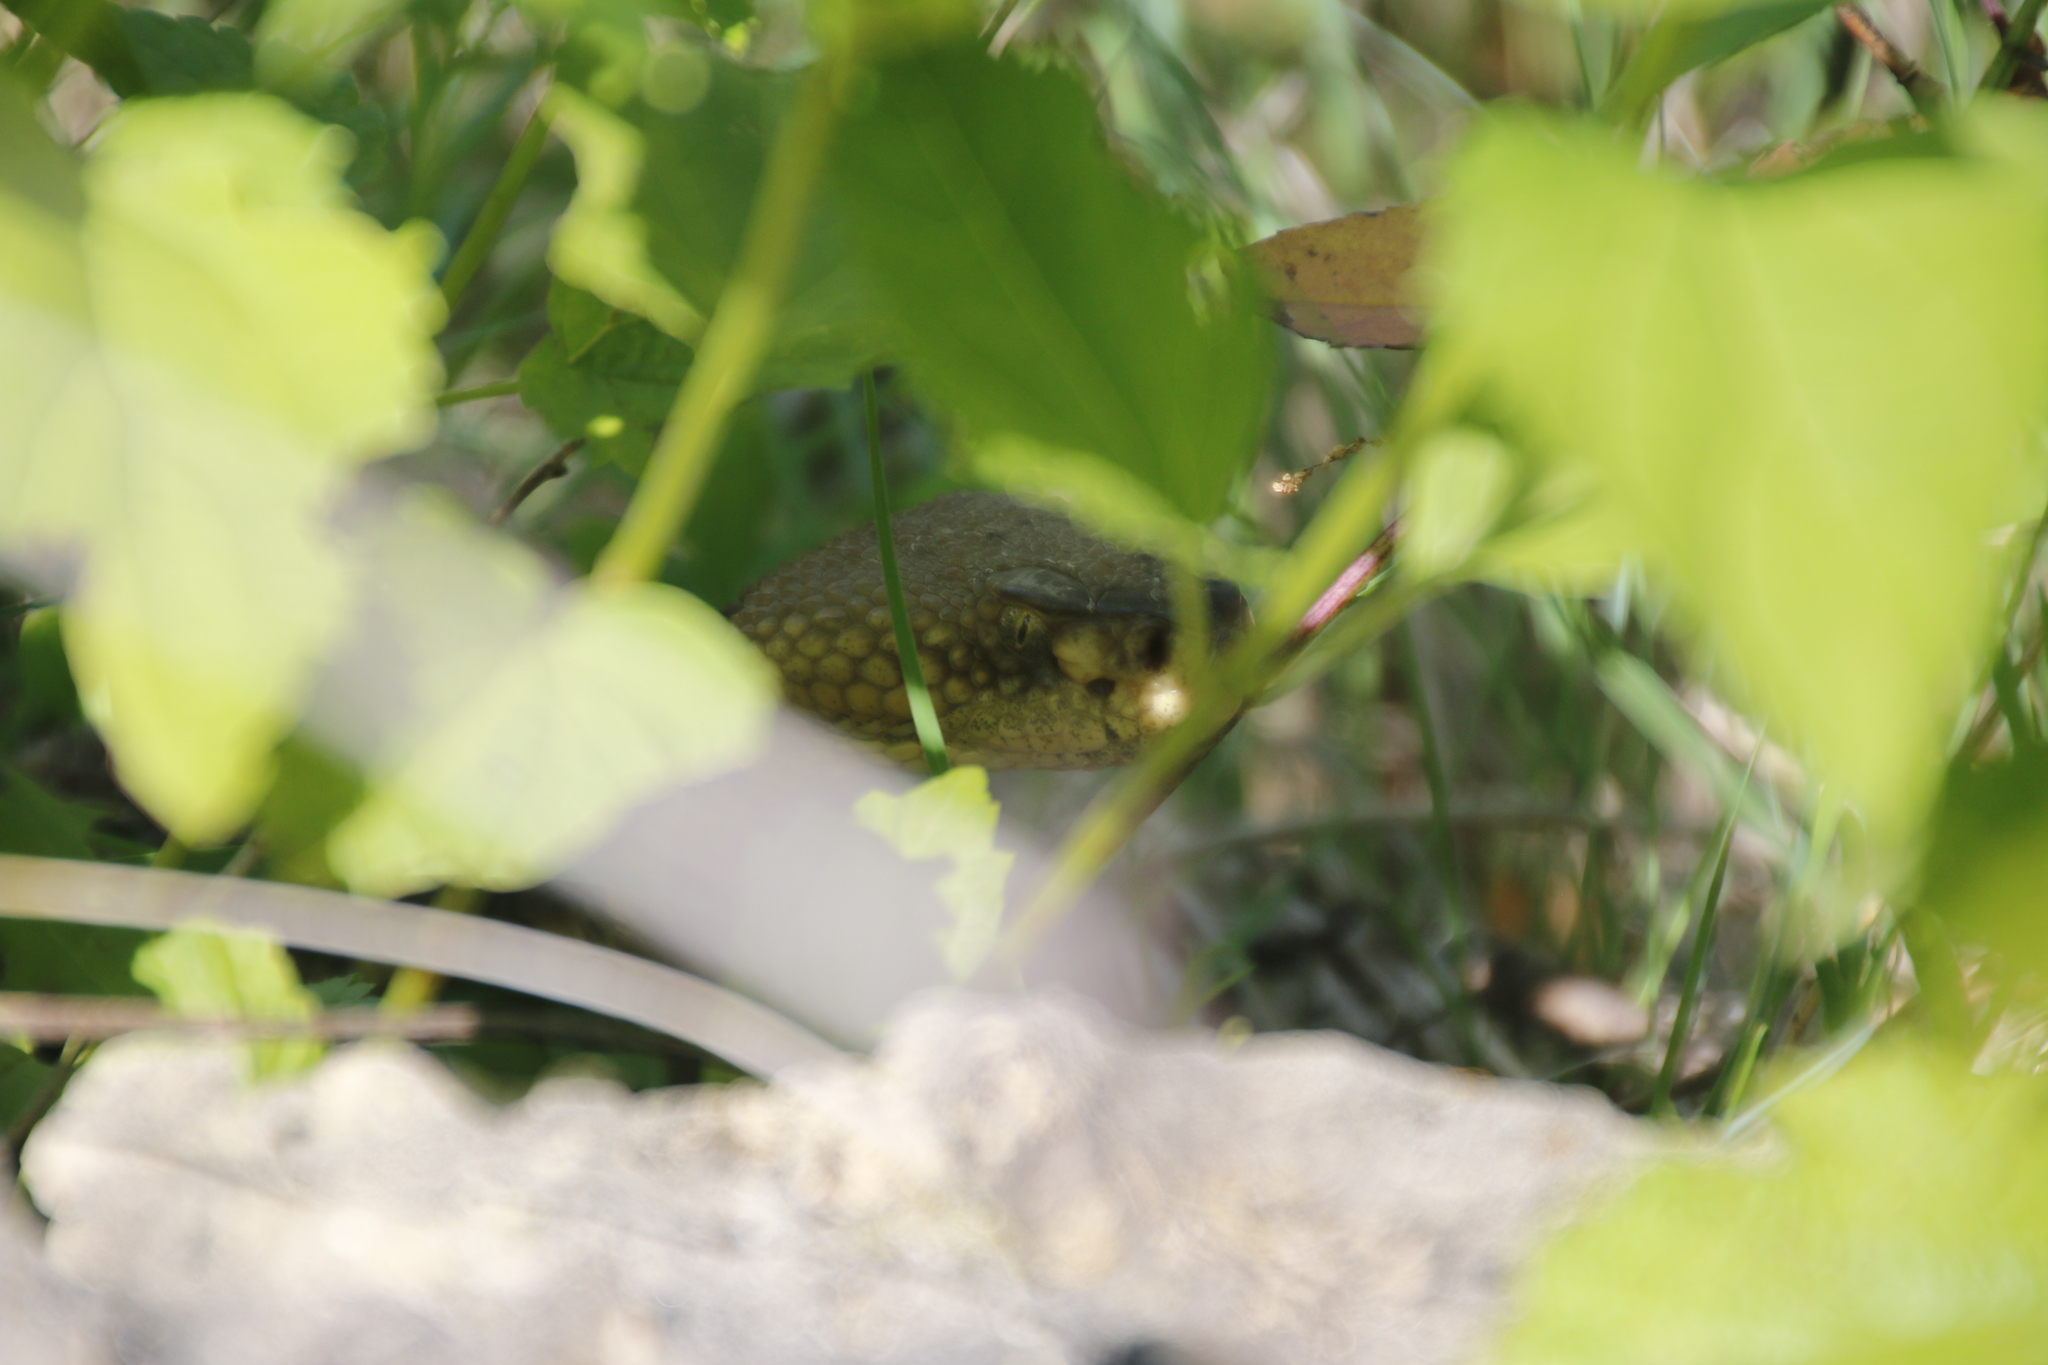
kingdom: Animalia
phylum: Chordata
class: Squamata
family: Viperidae
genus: Crotalus
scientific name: Crotalus horridus
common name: Timber rattlesnake
